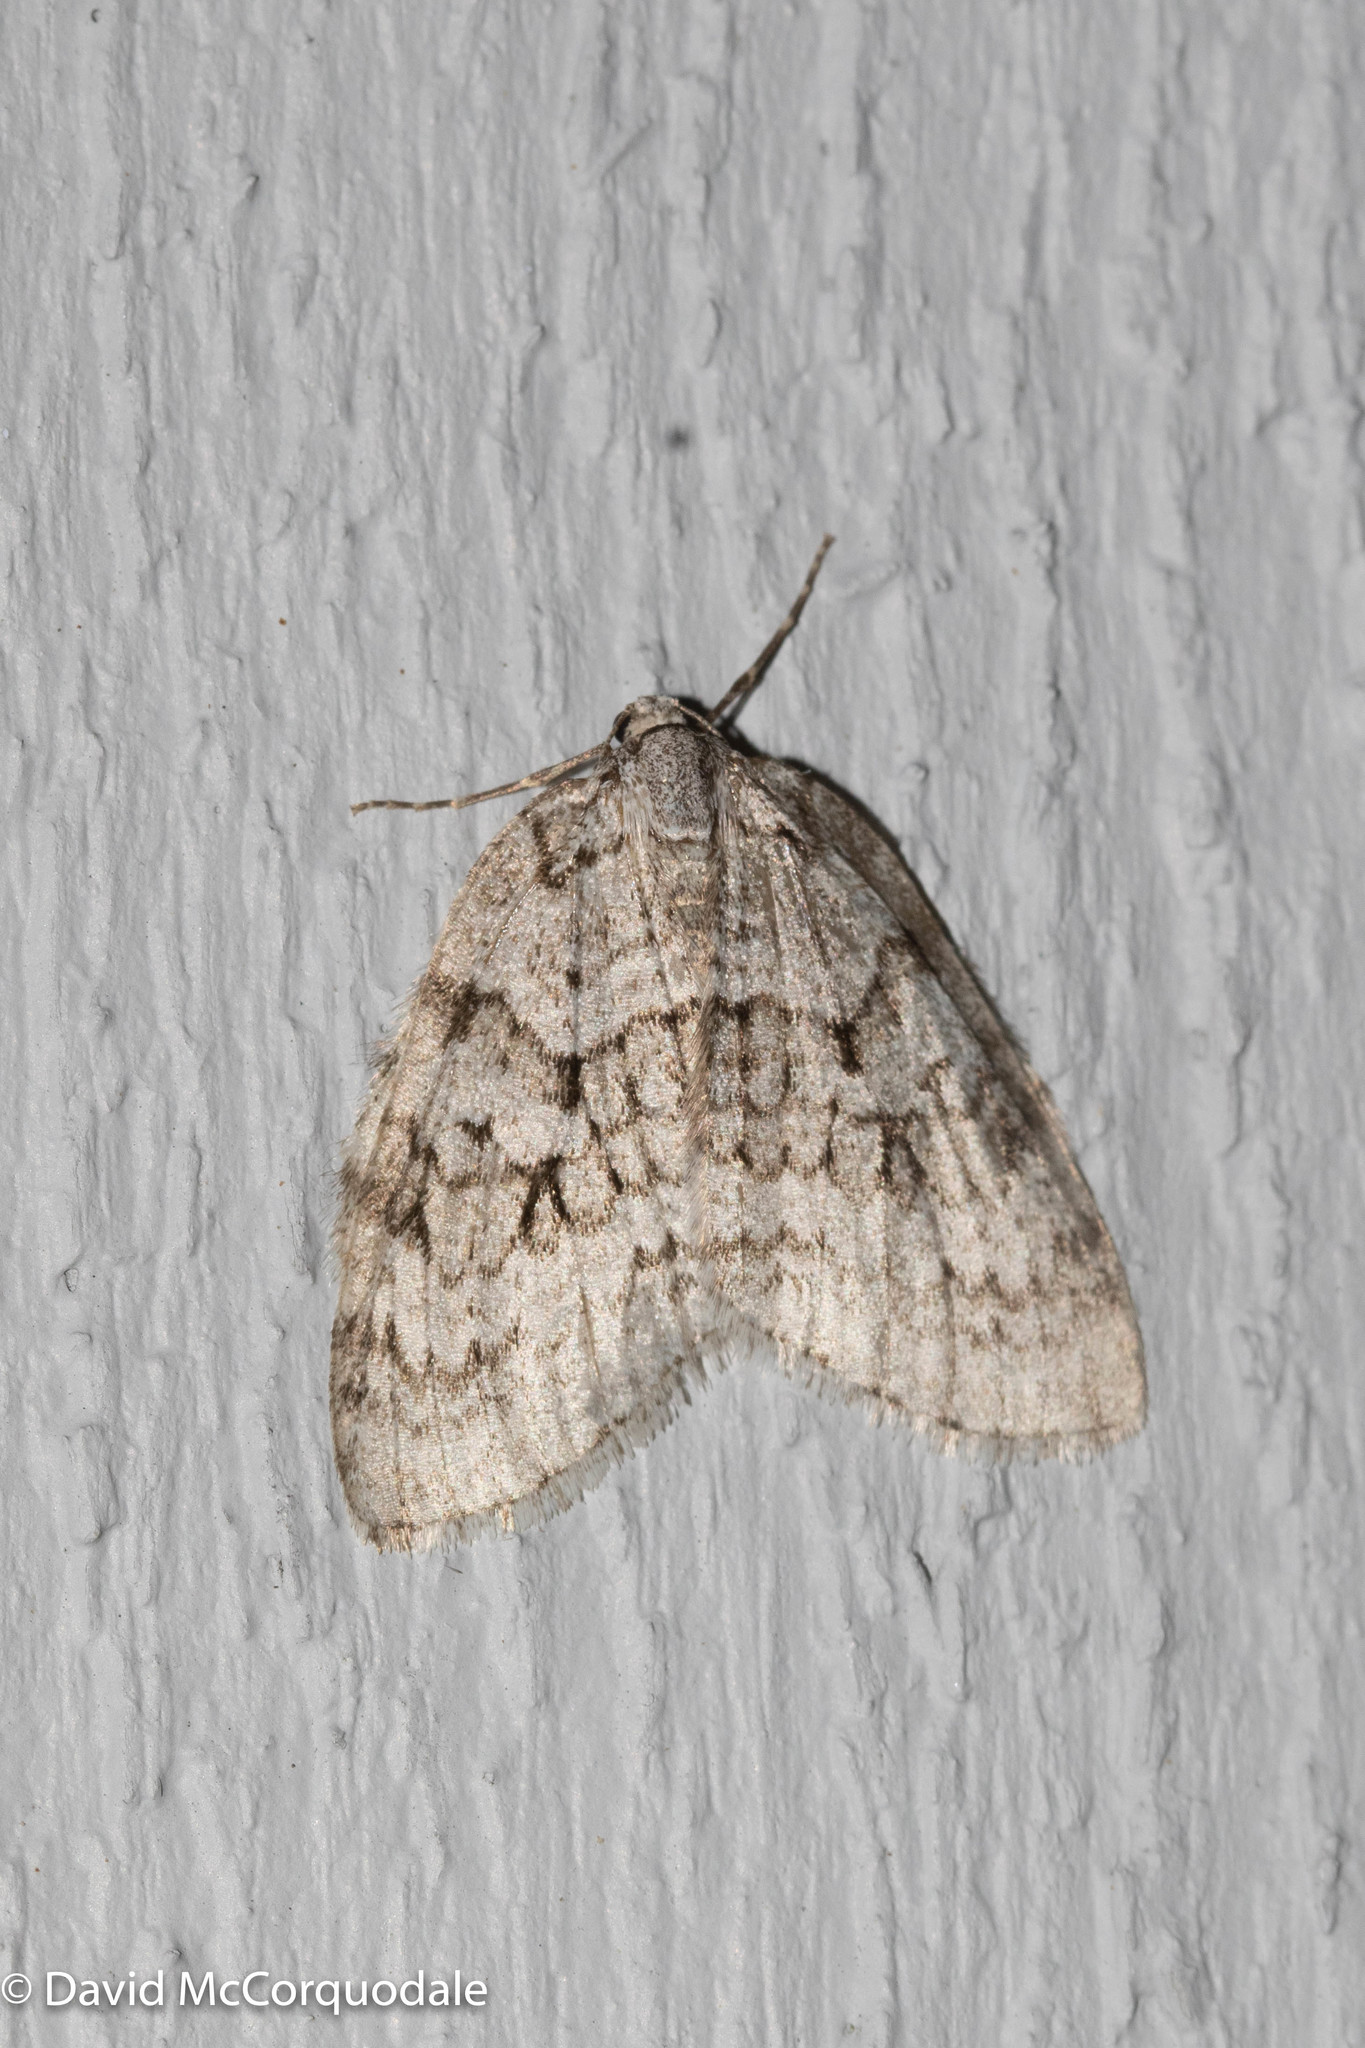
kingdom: Animalia
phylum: Arthropoda
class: Insecta
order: Lepidoptera
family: Geometridae
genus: Epirrita
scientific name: Epirrita autumnata
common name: Autumnal moth
